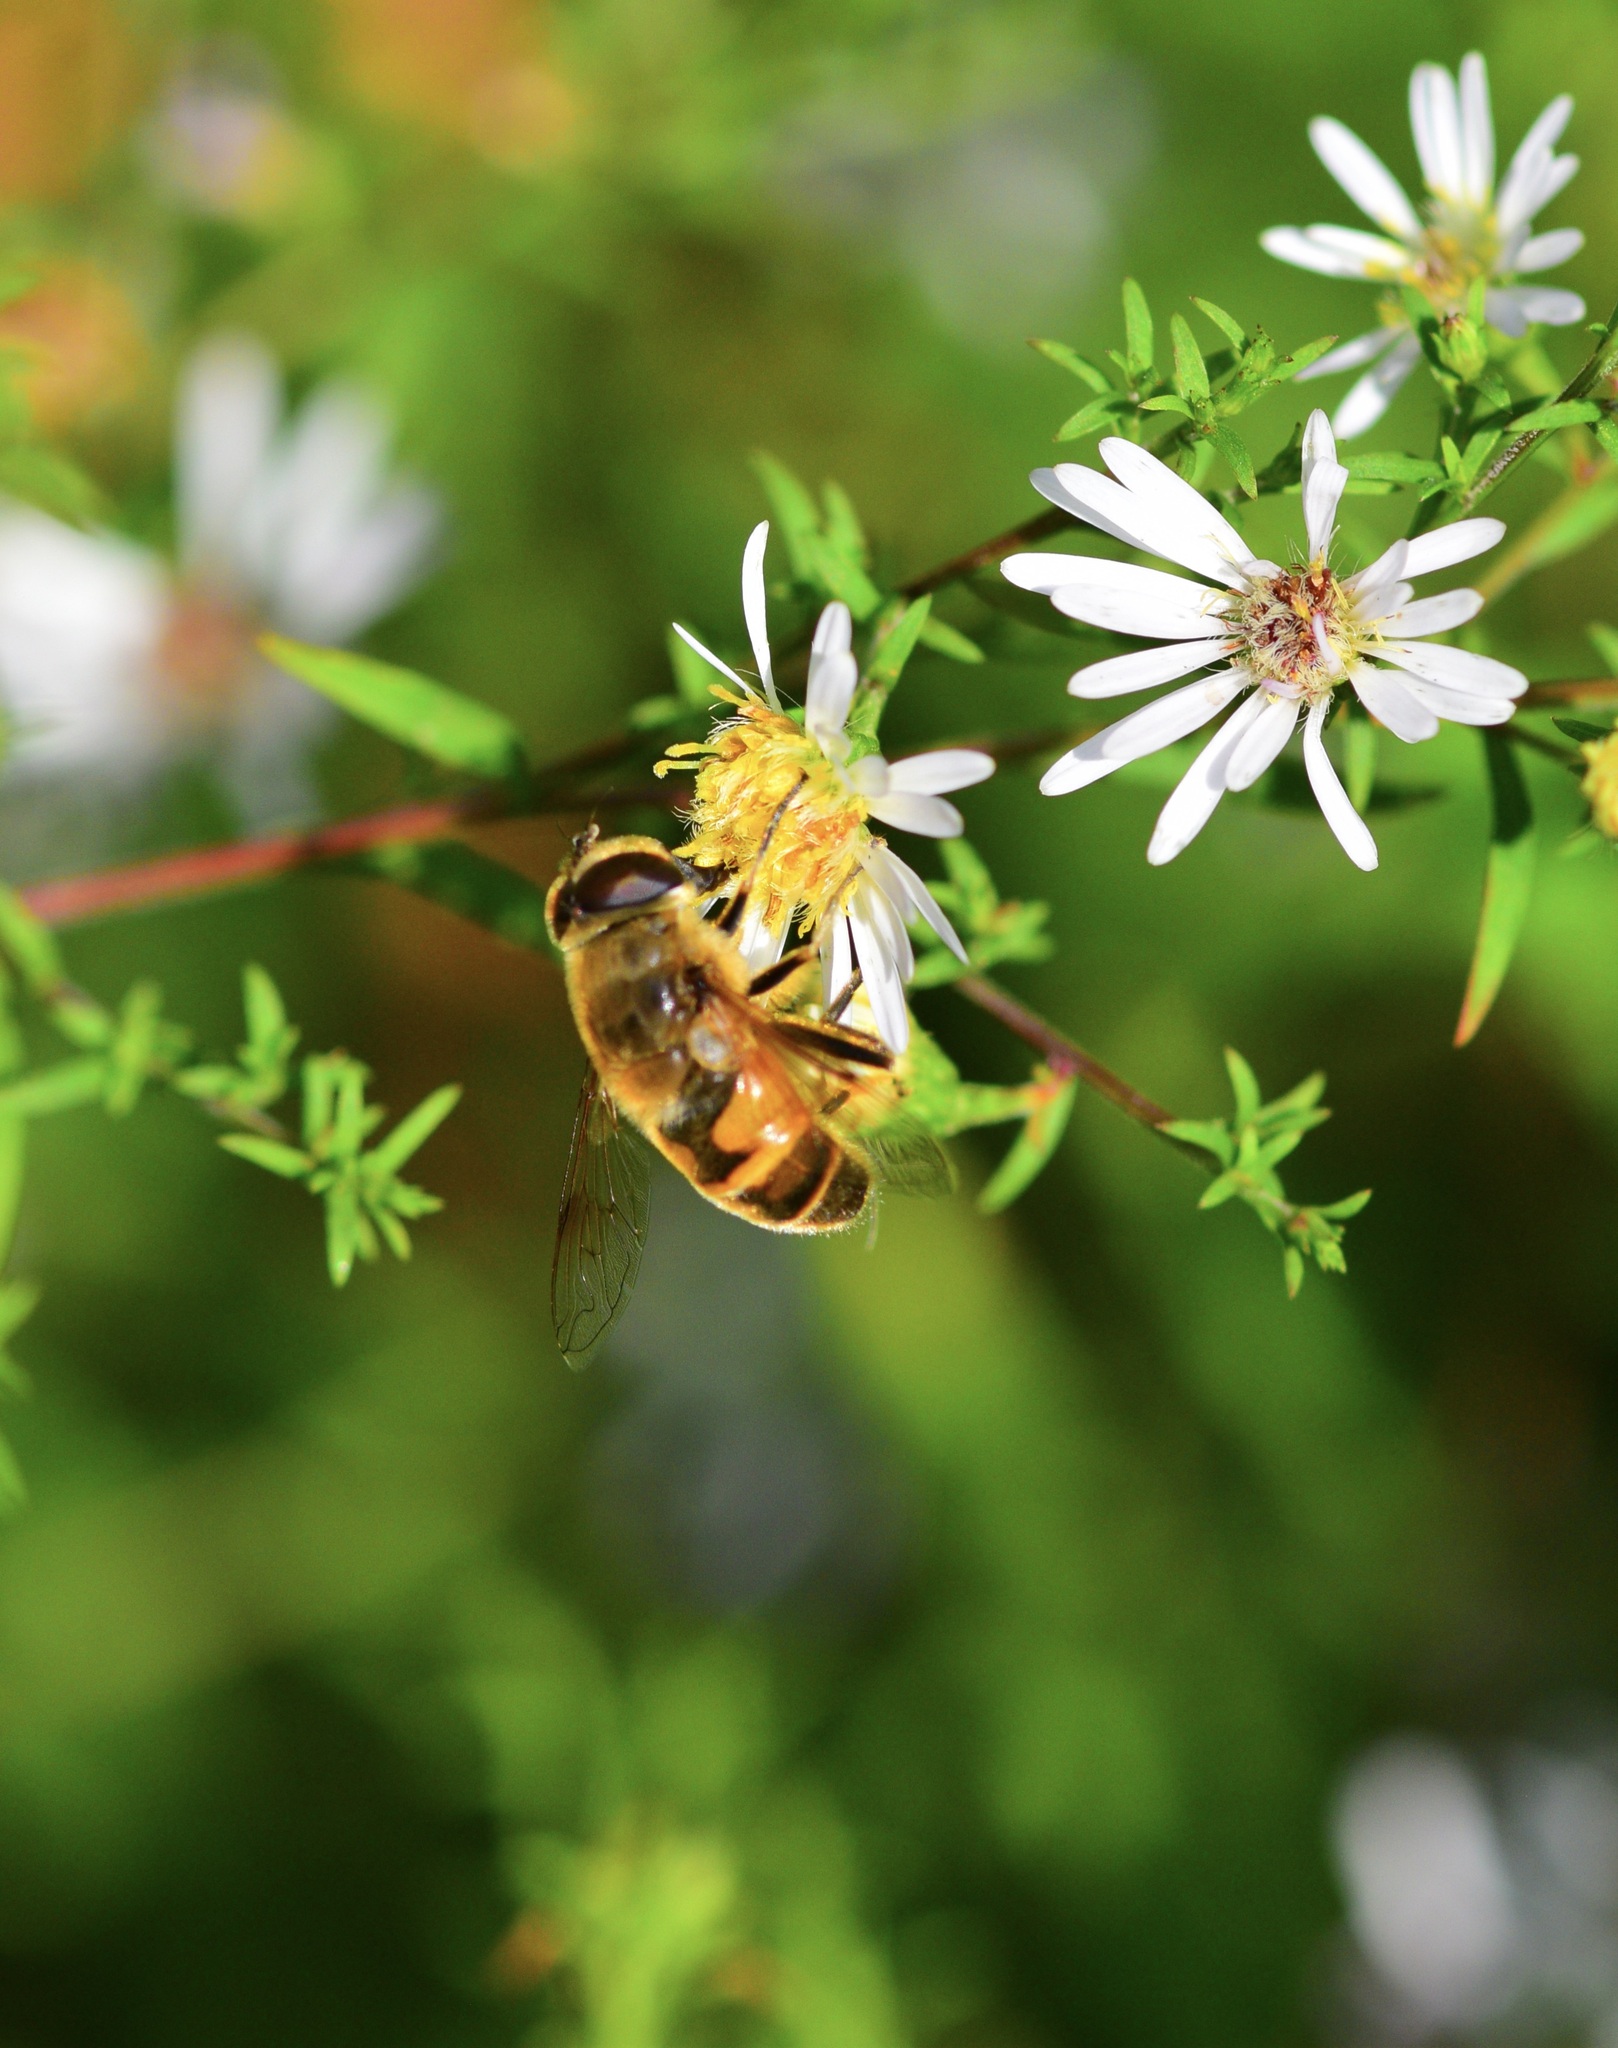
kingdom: Animalia
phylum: Arthropoda
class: Insecta
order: Diptera
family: Syrphidae
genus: Eristalis
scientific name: Eristalis tenax
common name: Drone fly
